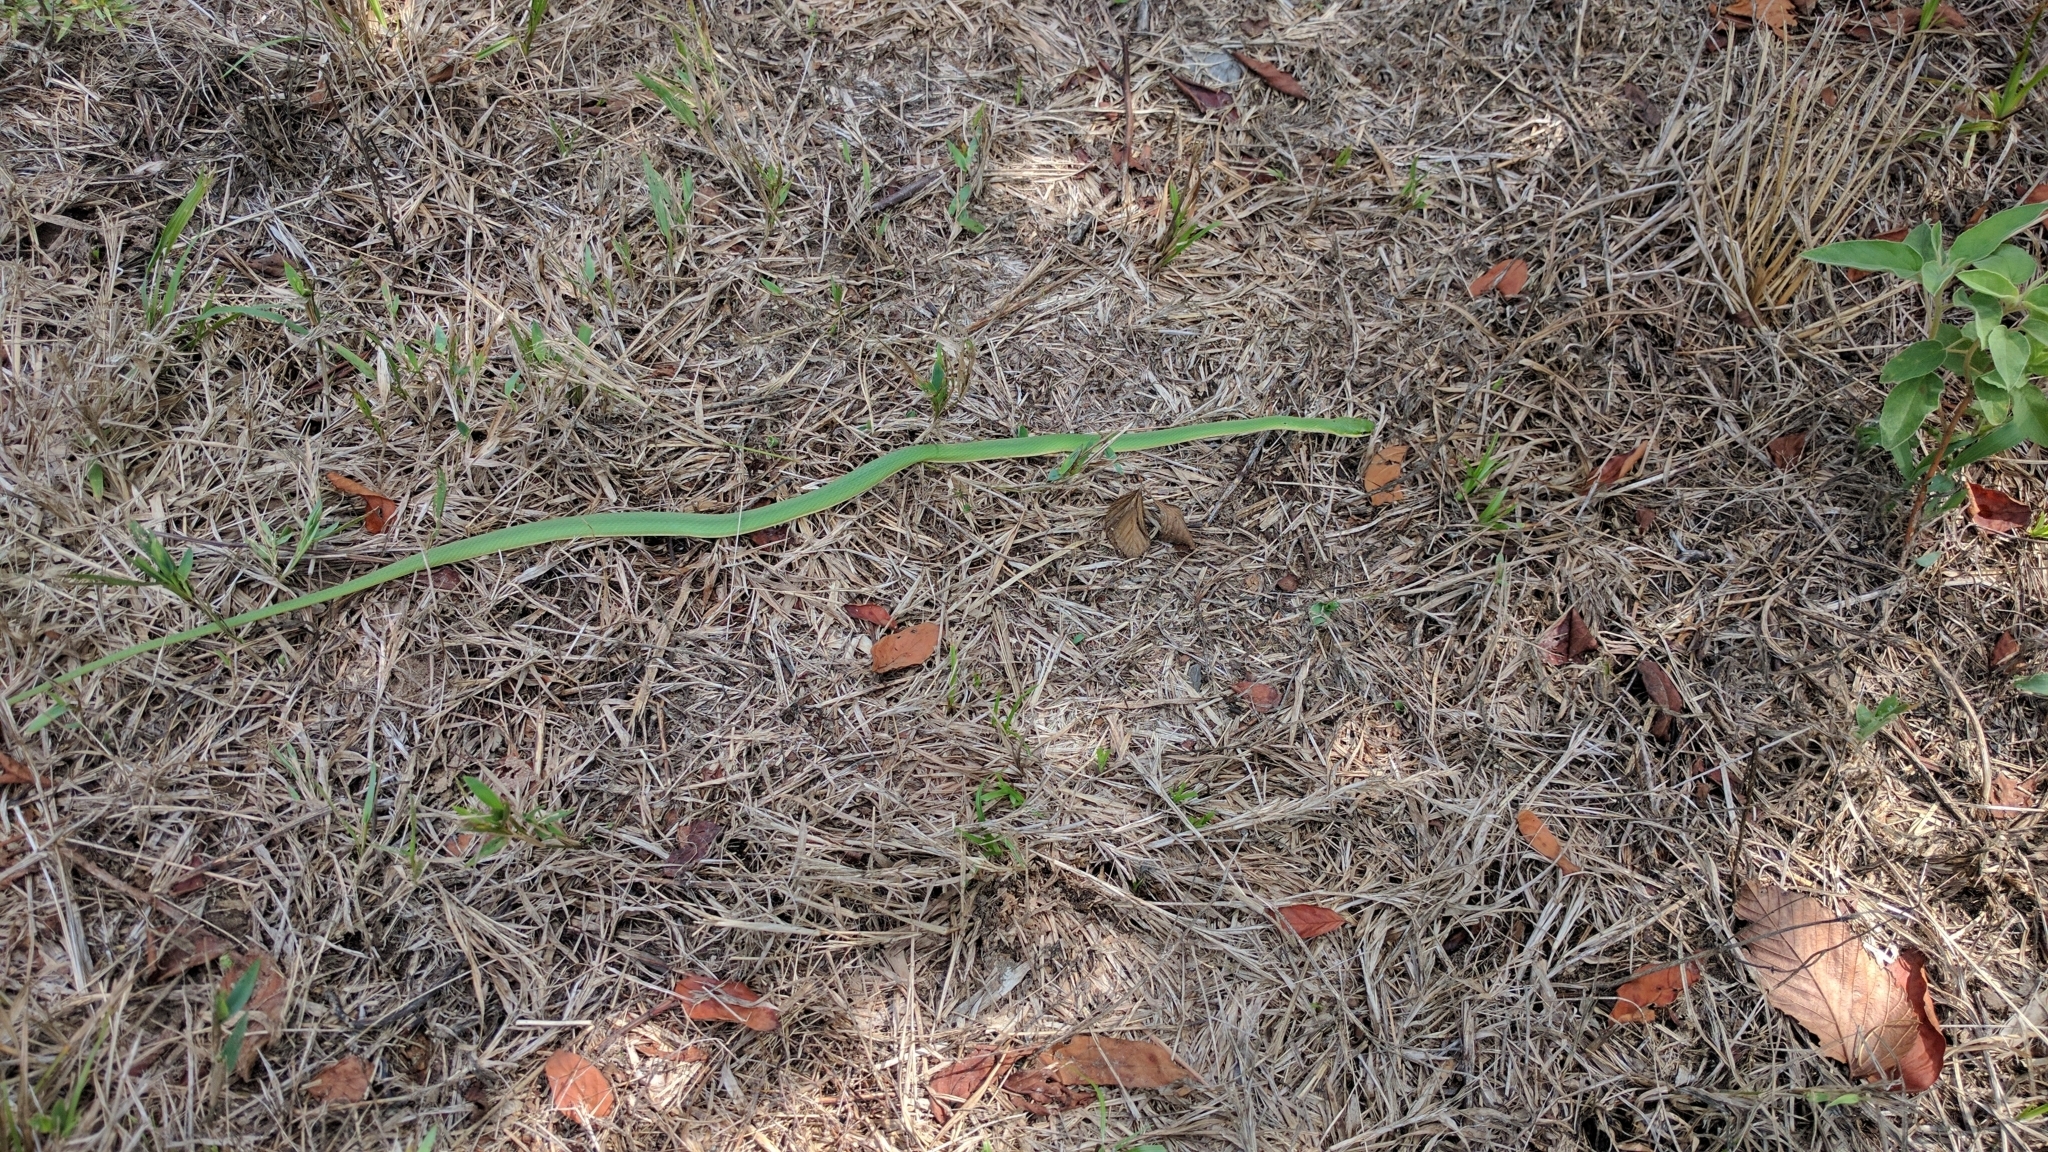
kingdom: Animalia
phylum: Chordata
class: Squamata
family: Colubridae
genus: Opheodrys
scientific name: Opheodrys aestivus
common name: Rough greensnake
